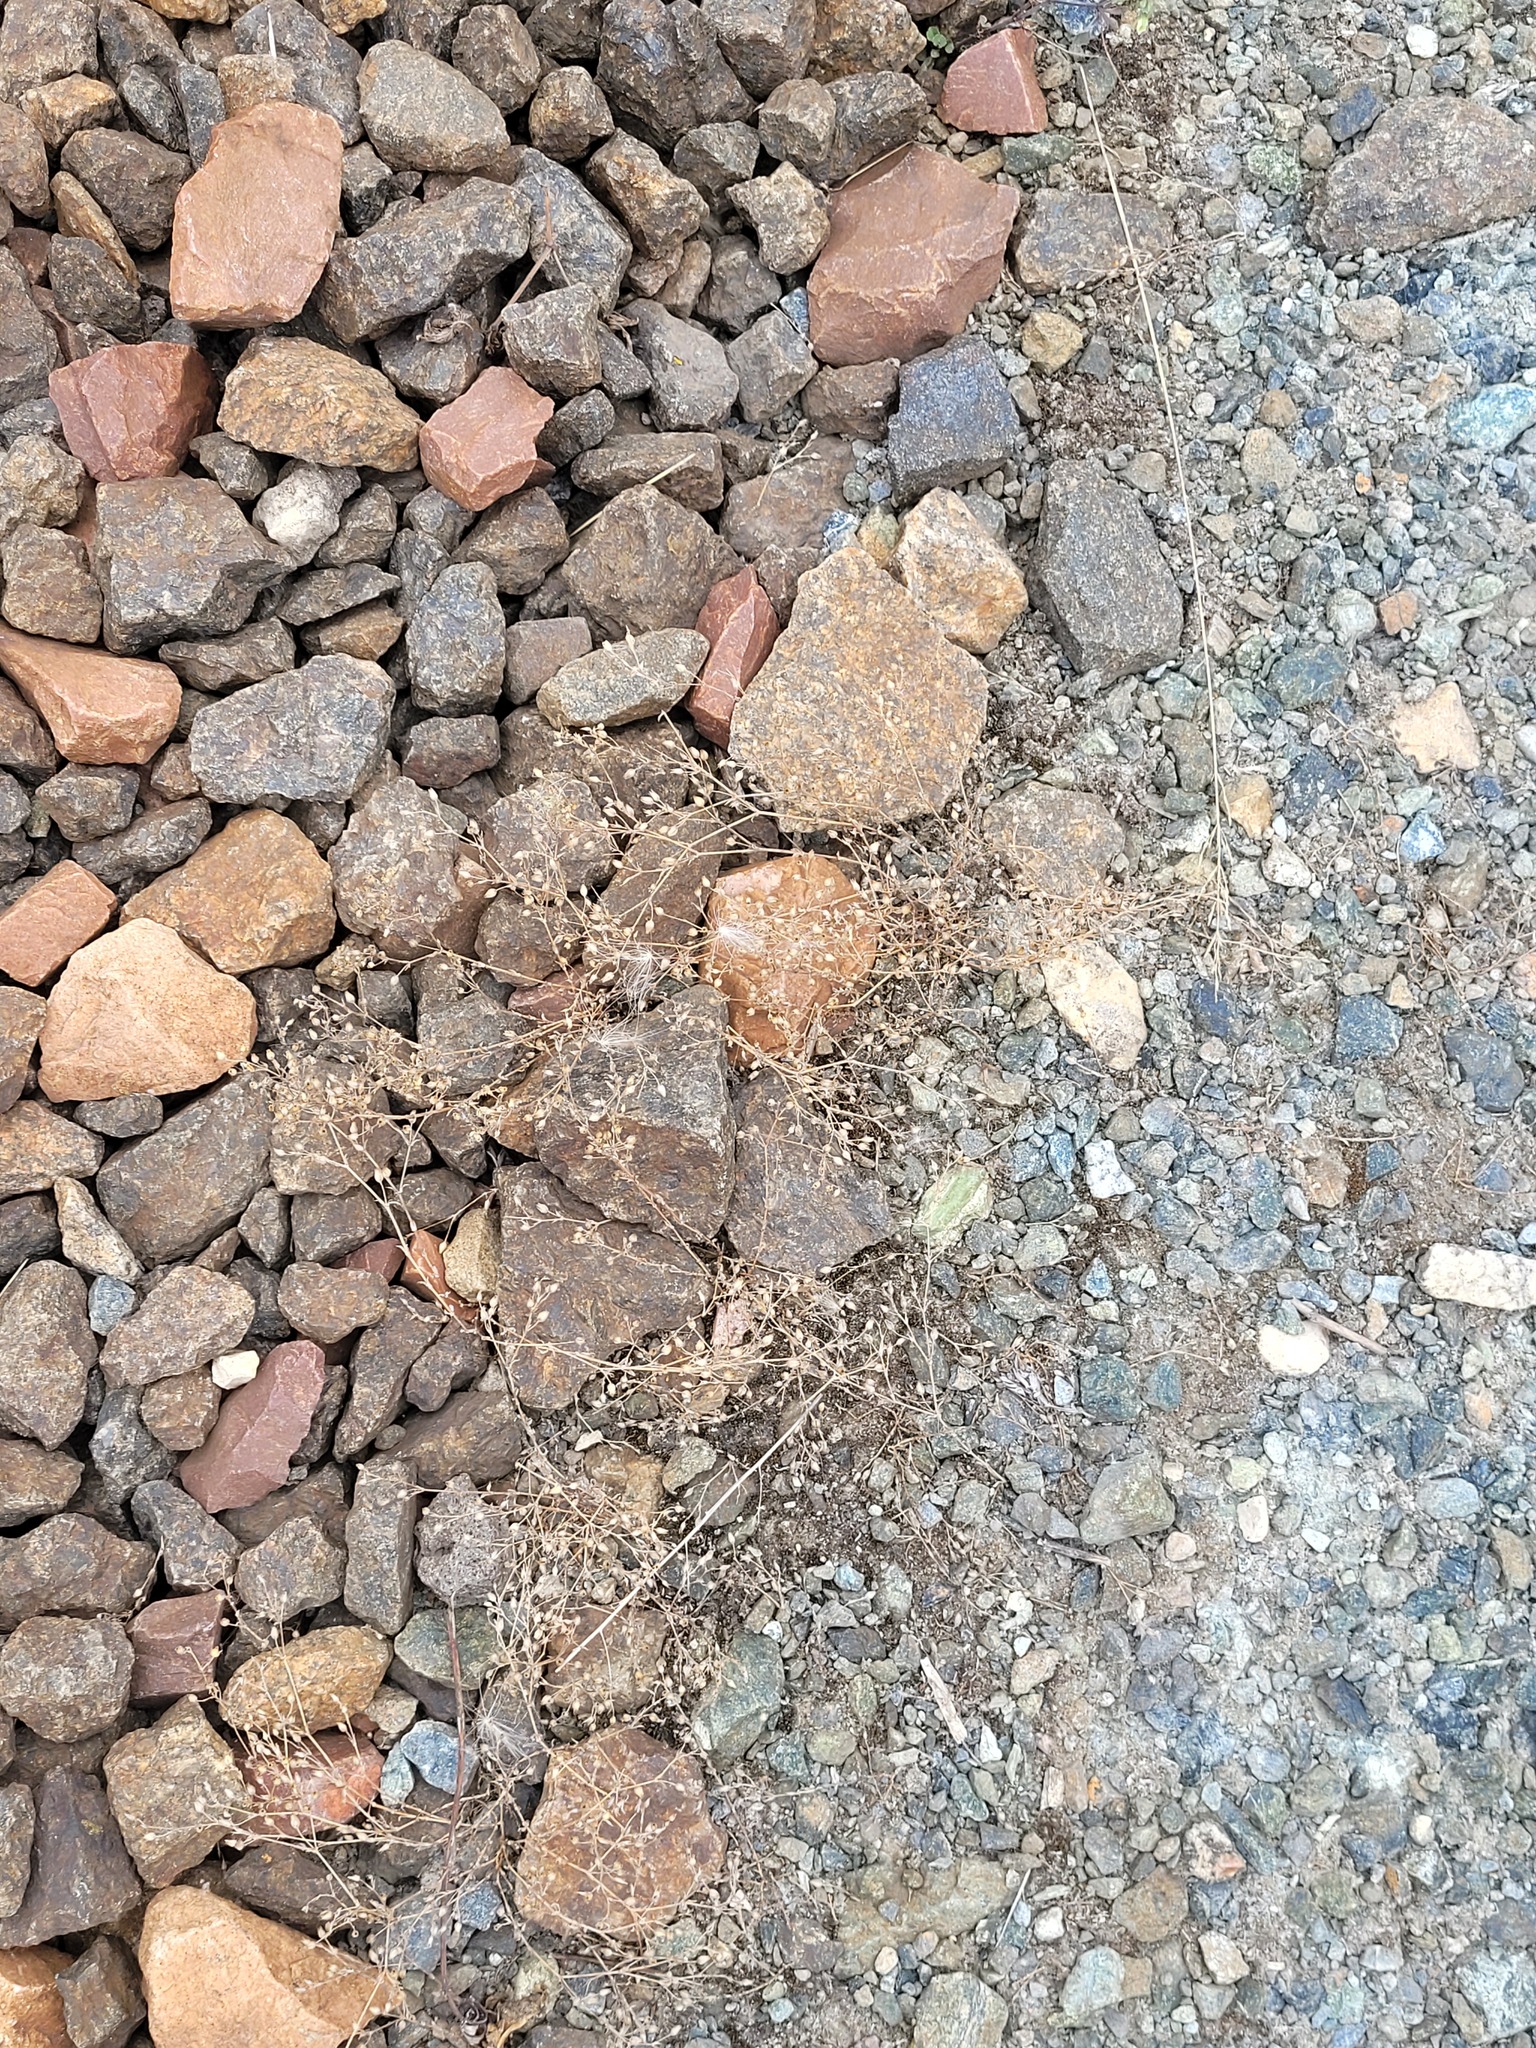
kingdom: Plantae
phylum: Tracheophyta
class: Magnoliopsida
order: Caryophyllales
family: Caryophyllaceae
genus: Arenaria
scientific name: Arenaria serpyllifolia
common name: Thyme-leaved sandwort
